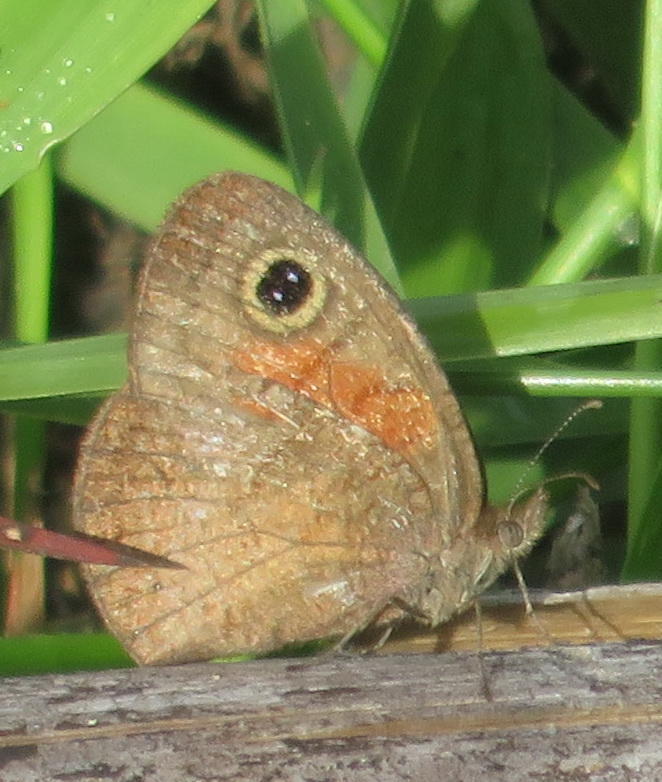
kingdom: Animalia
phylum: Arthropoda
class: Insecta
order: Lepidoptera
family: Nymphalidae
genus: Pseudonympha
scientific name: Pseudonympha detecta
